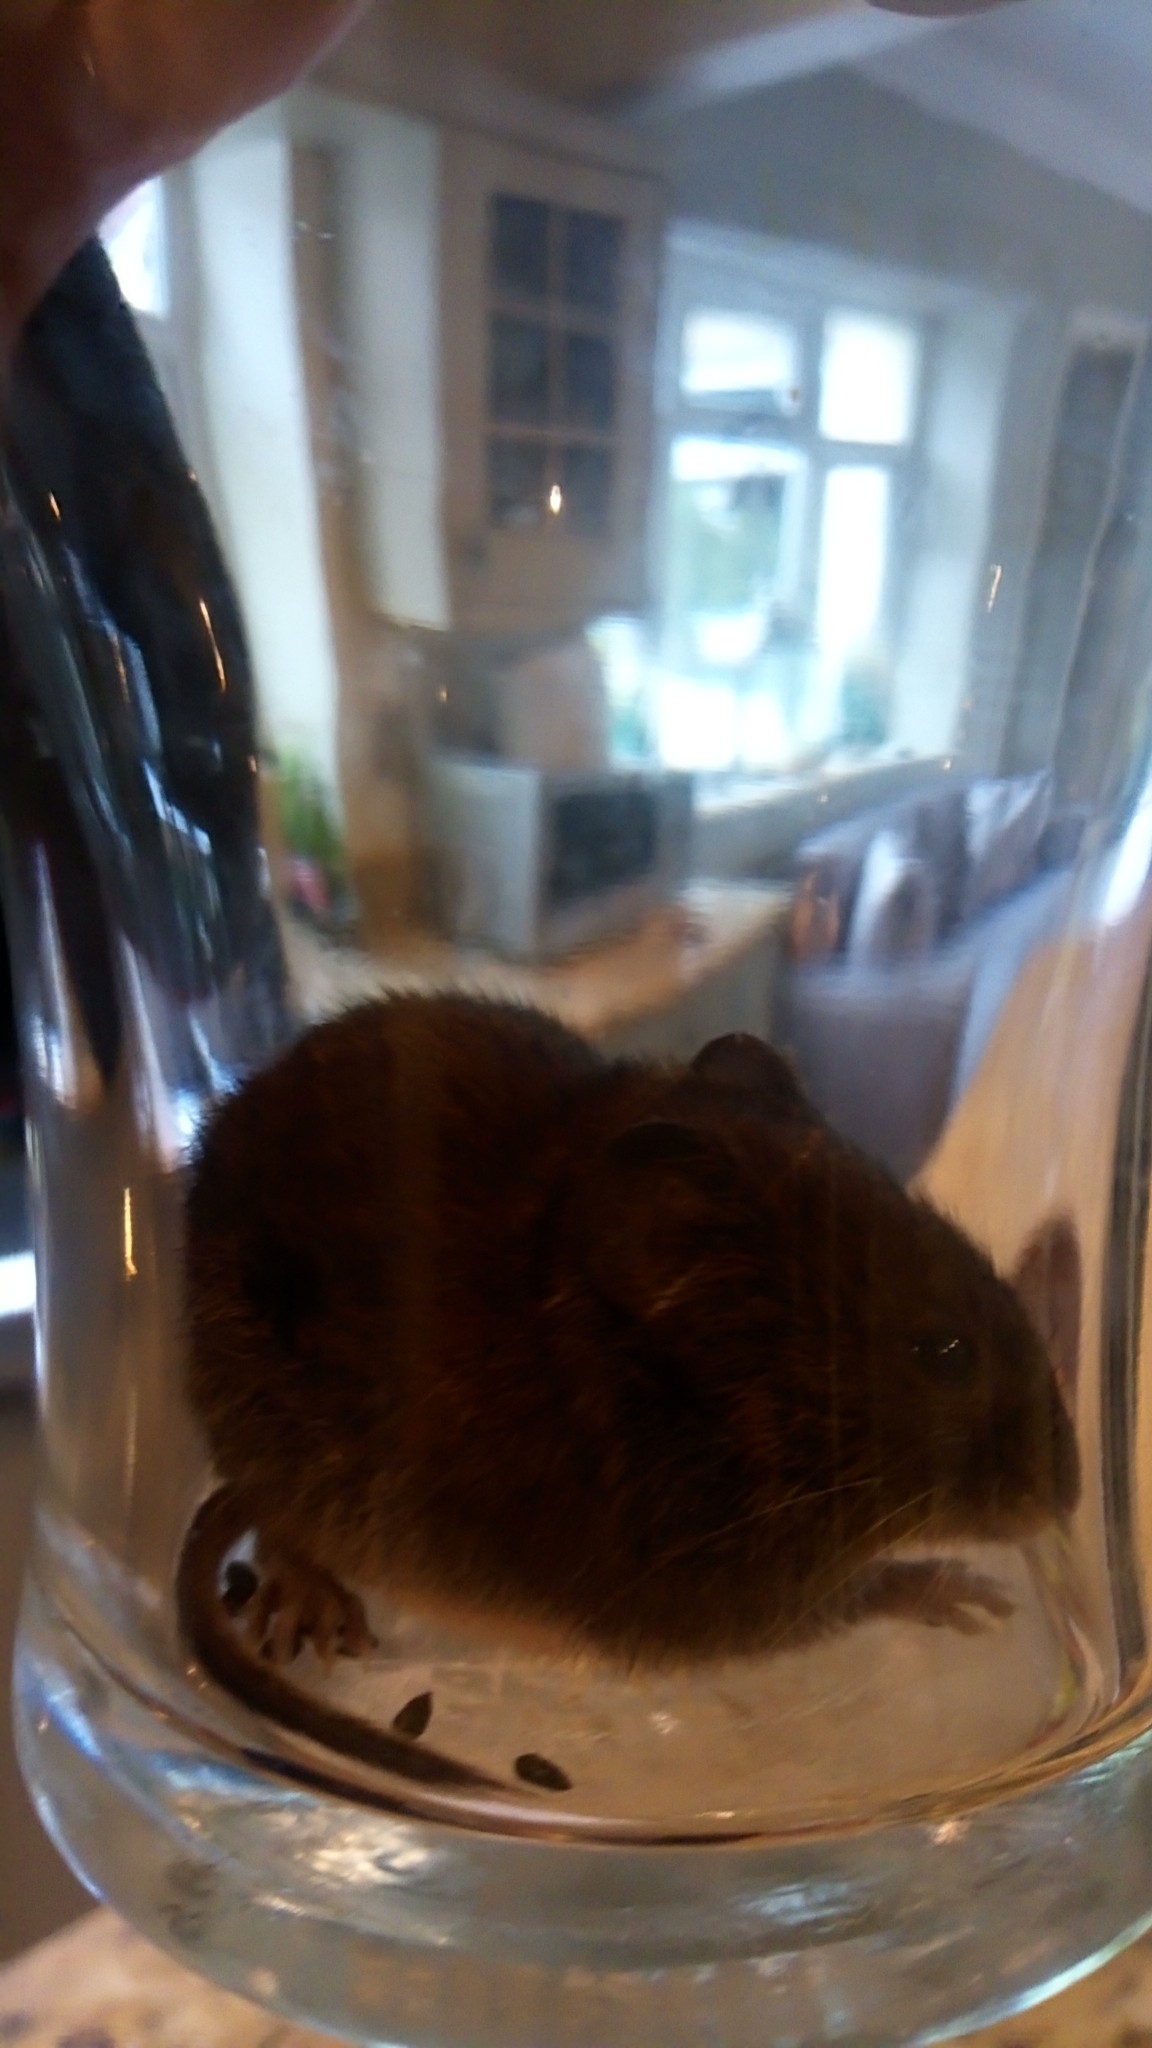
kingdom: Animalia
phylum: Chordata
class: Mammalia
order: Rodentia
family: Cricetidae
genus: Myodes
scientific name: Myodes glareolus
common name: Bank vole
